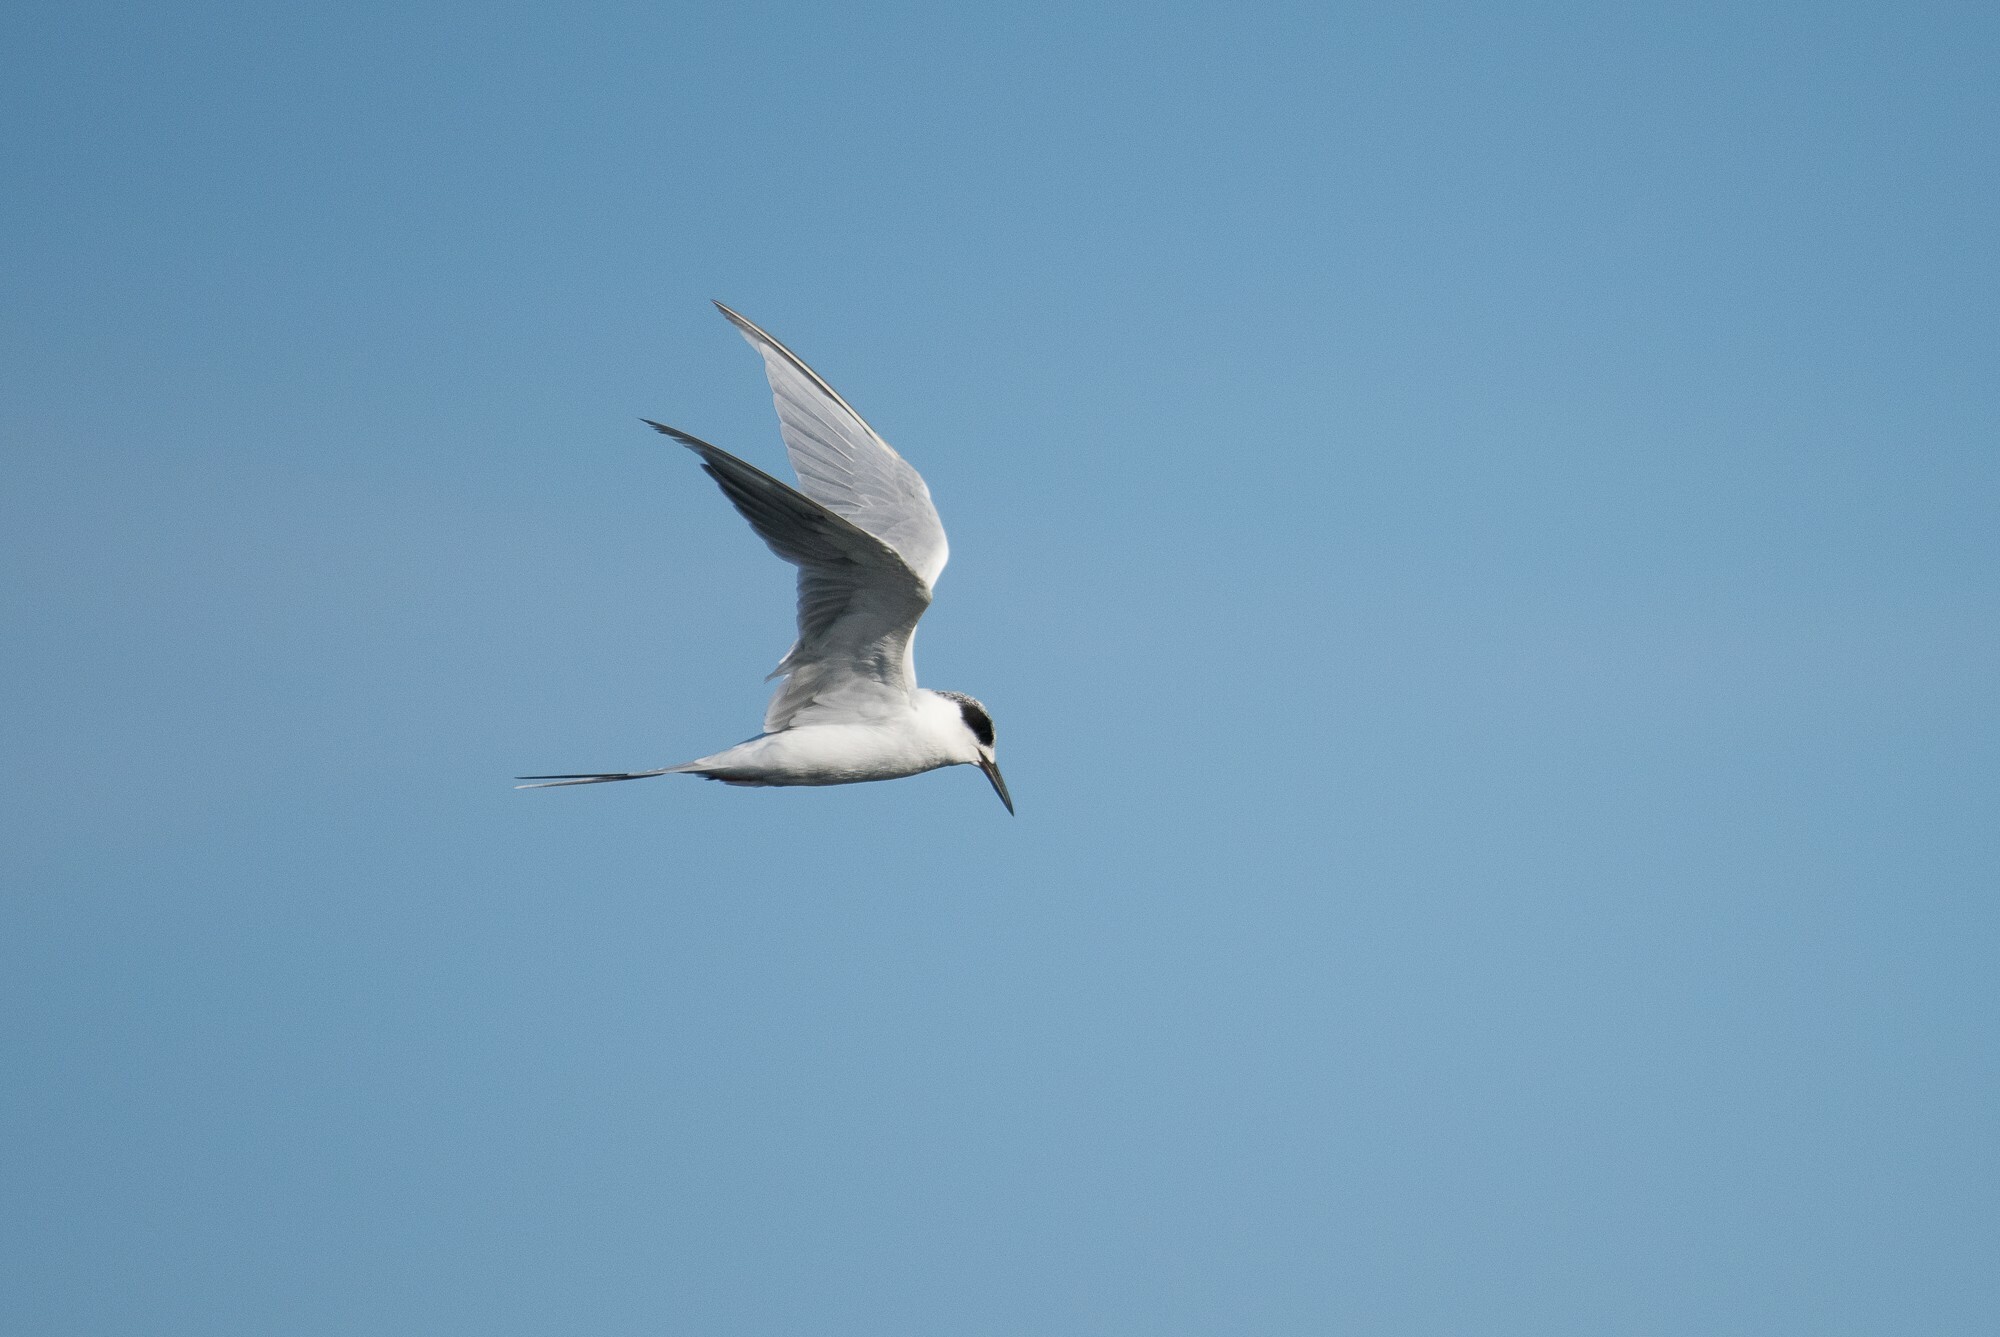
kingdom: Animalia
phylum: Chordata
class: Aves
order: Charadriiformes
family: Laridae
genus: Sterna
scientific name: Sterna forsteri
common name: Forster's tern
